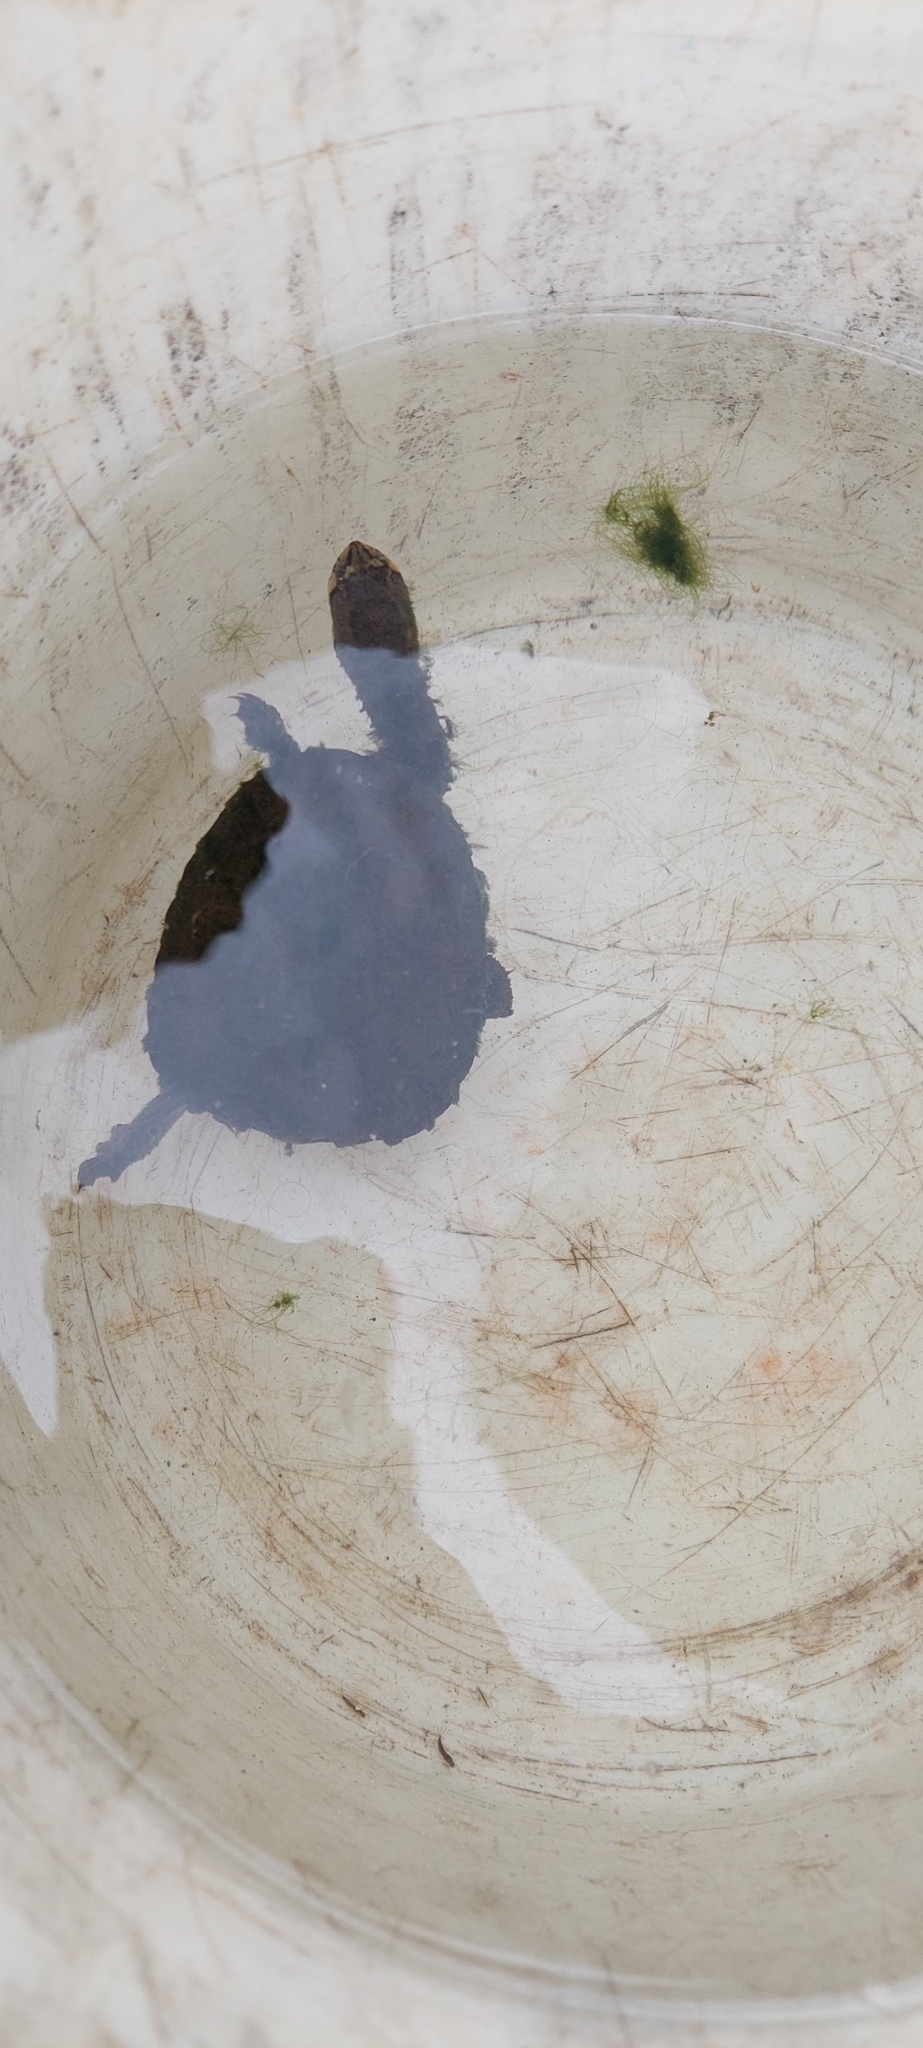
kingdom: Animalia
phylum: Chordata
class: Testudines
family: Chelidae
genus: Hydromedusa
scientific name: Hydromedusa tectifera
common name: Argentine snake-necked turtle
